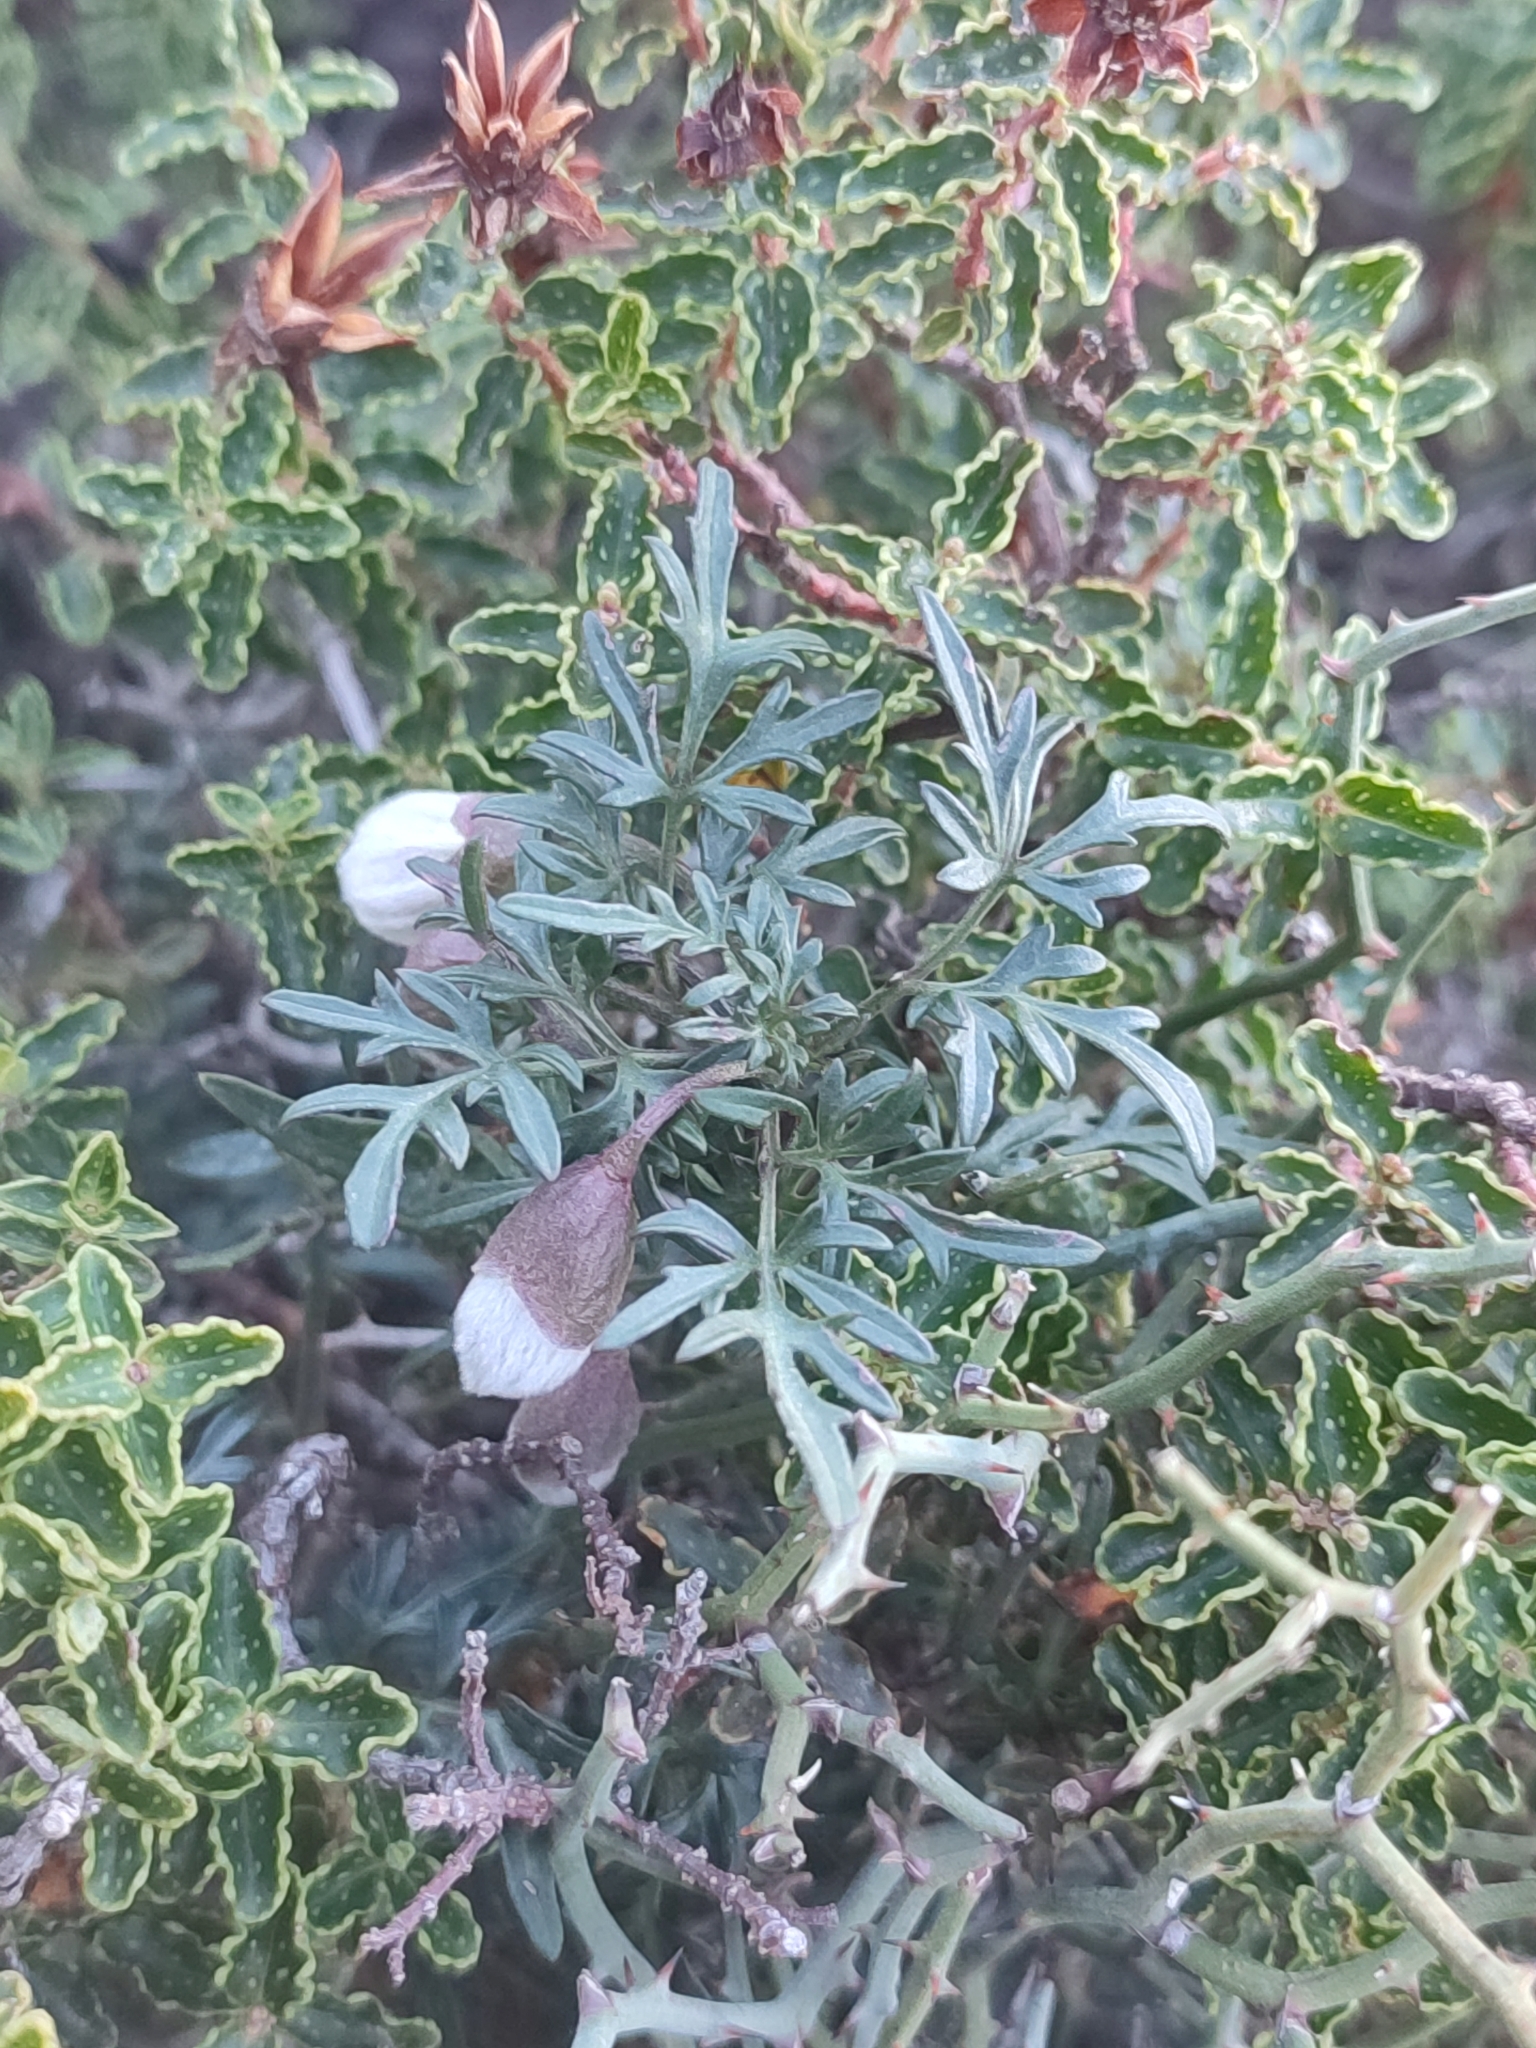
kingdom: Plantae
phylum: Tracheophyta
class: Magnoliopsida
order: Ranunculales
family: Ranunculaceae
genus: Clematis
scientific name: Clematis cirrhosa
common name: Early virgin's-bower
